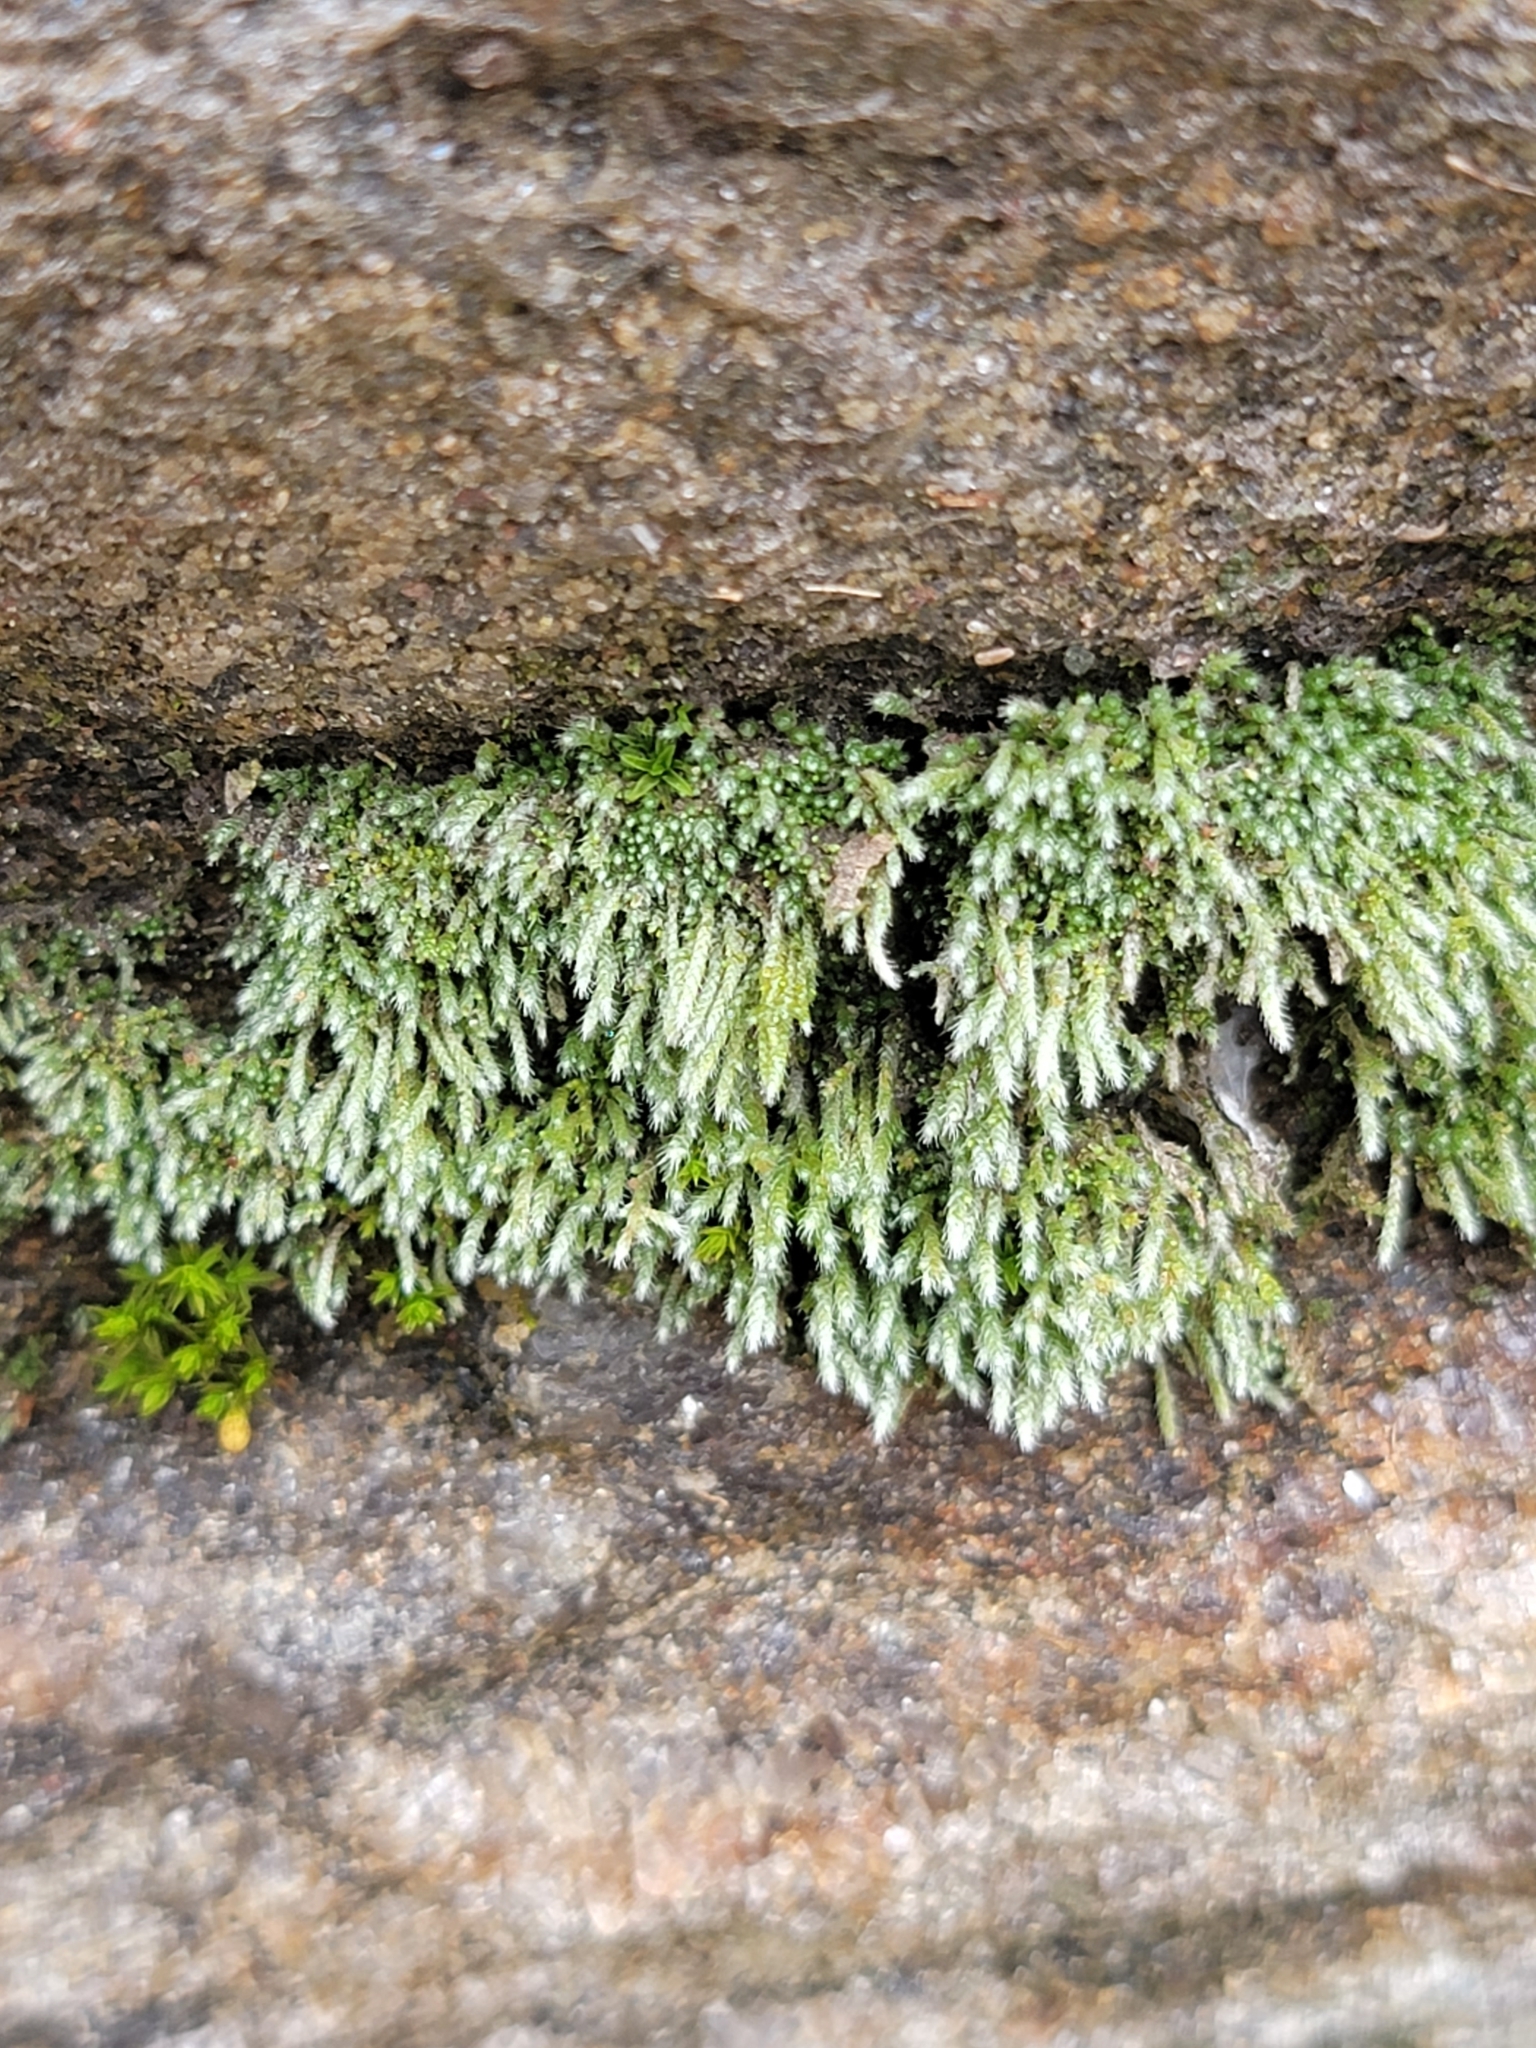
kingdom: Plantae
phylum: Bryophyta
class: Bryopsida
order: Bryales
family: Bryaceae
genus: Bryum
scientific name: Bryum argenteum
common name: Silver-moss
